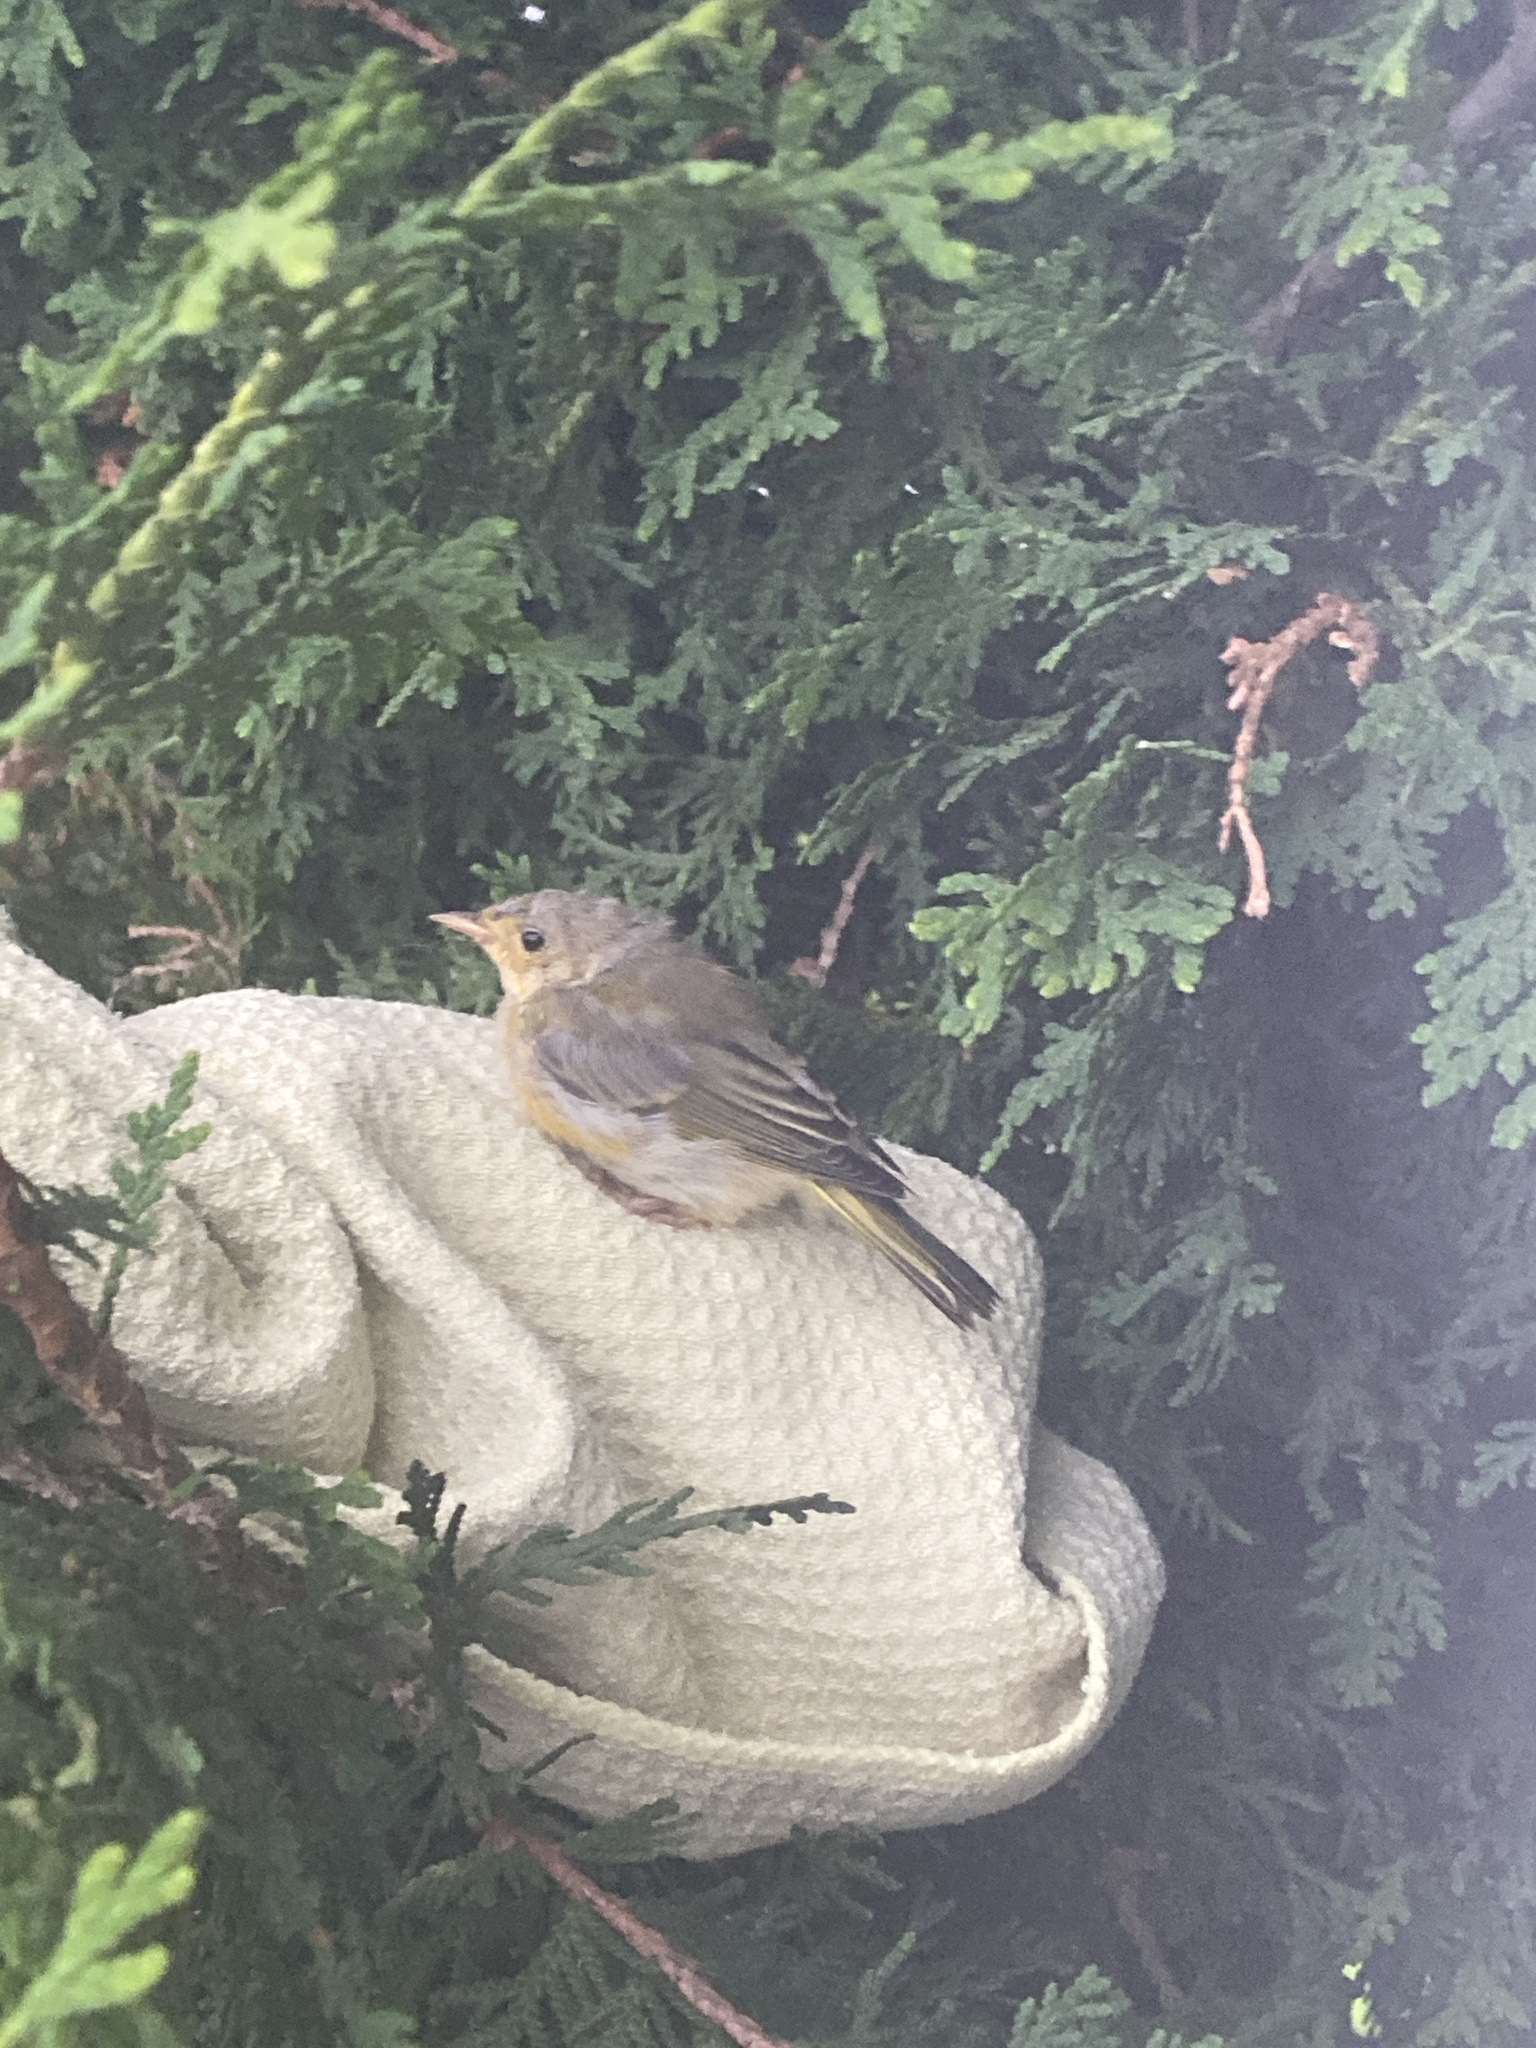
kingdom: Animalia
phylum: Chordata
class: Aves
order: Passeriformes
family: Parulidae
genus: Setophaga
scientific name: Setophaga petechia
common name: Yellow warbler
